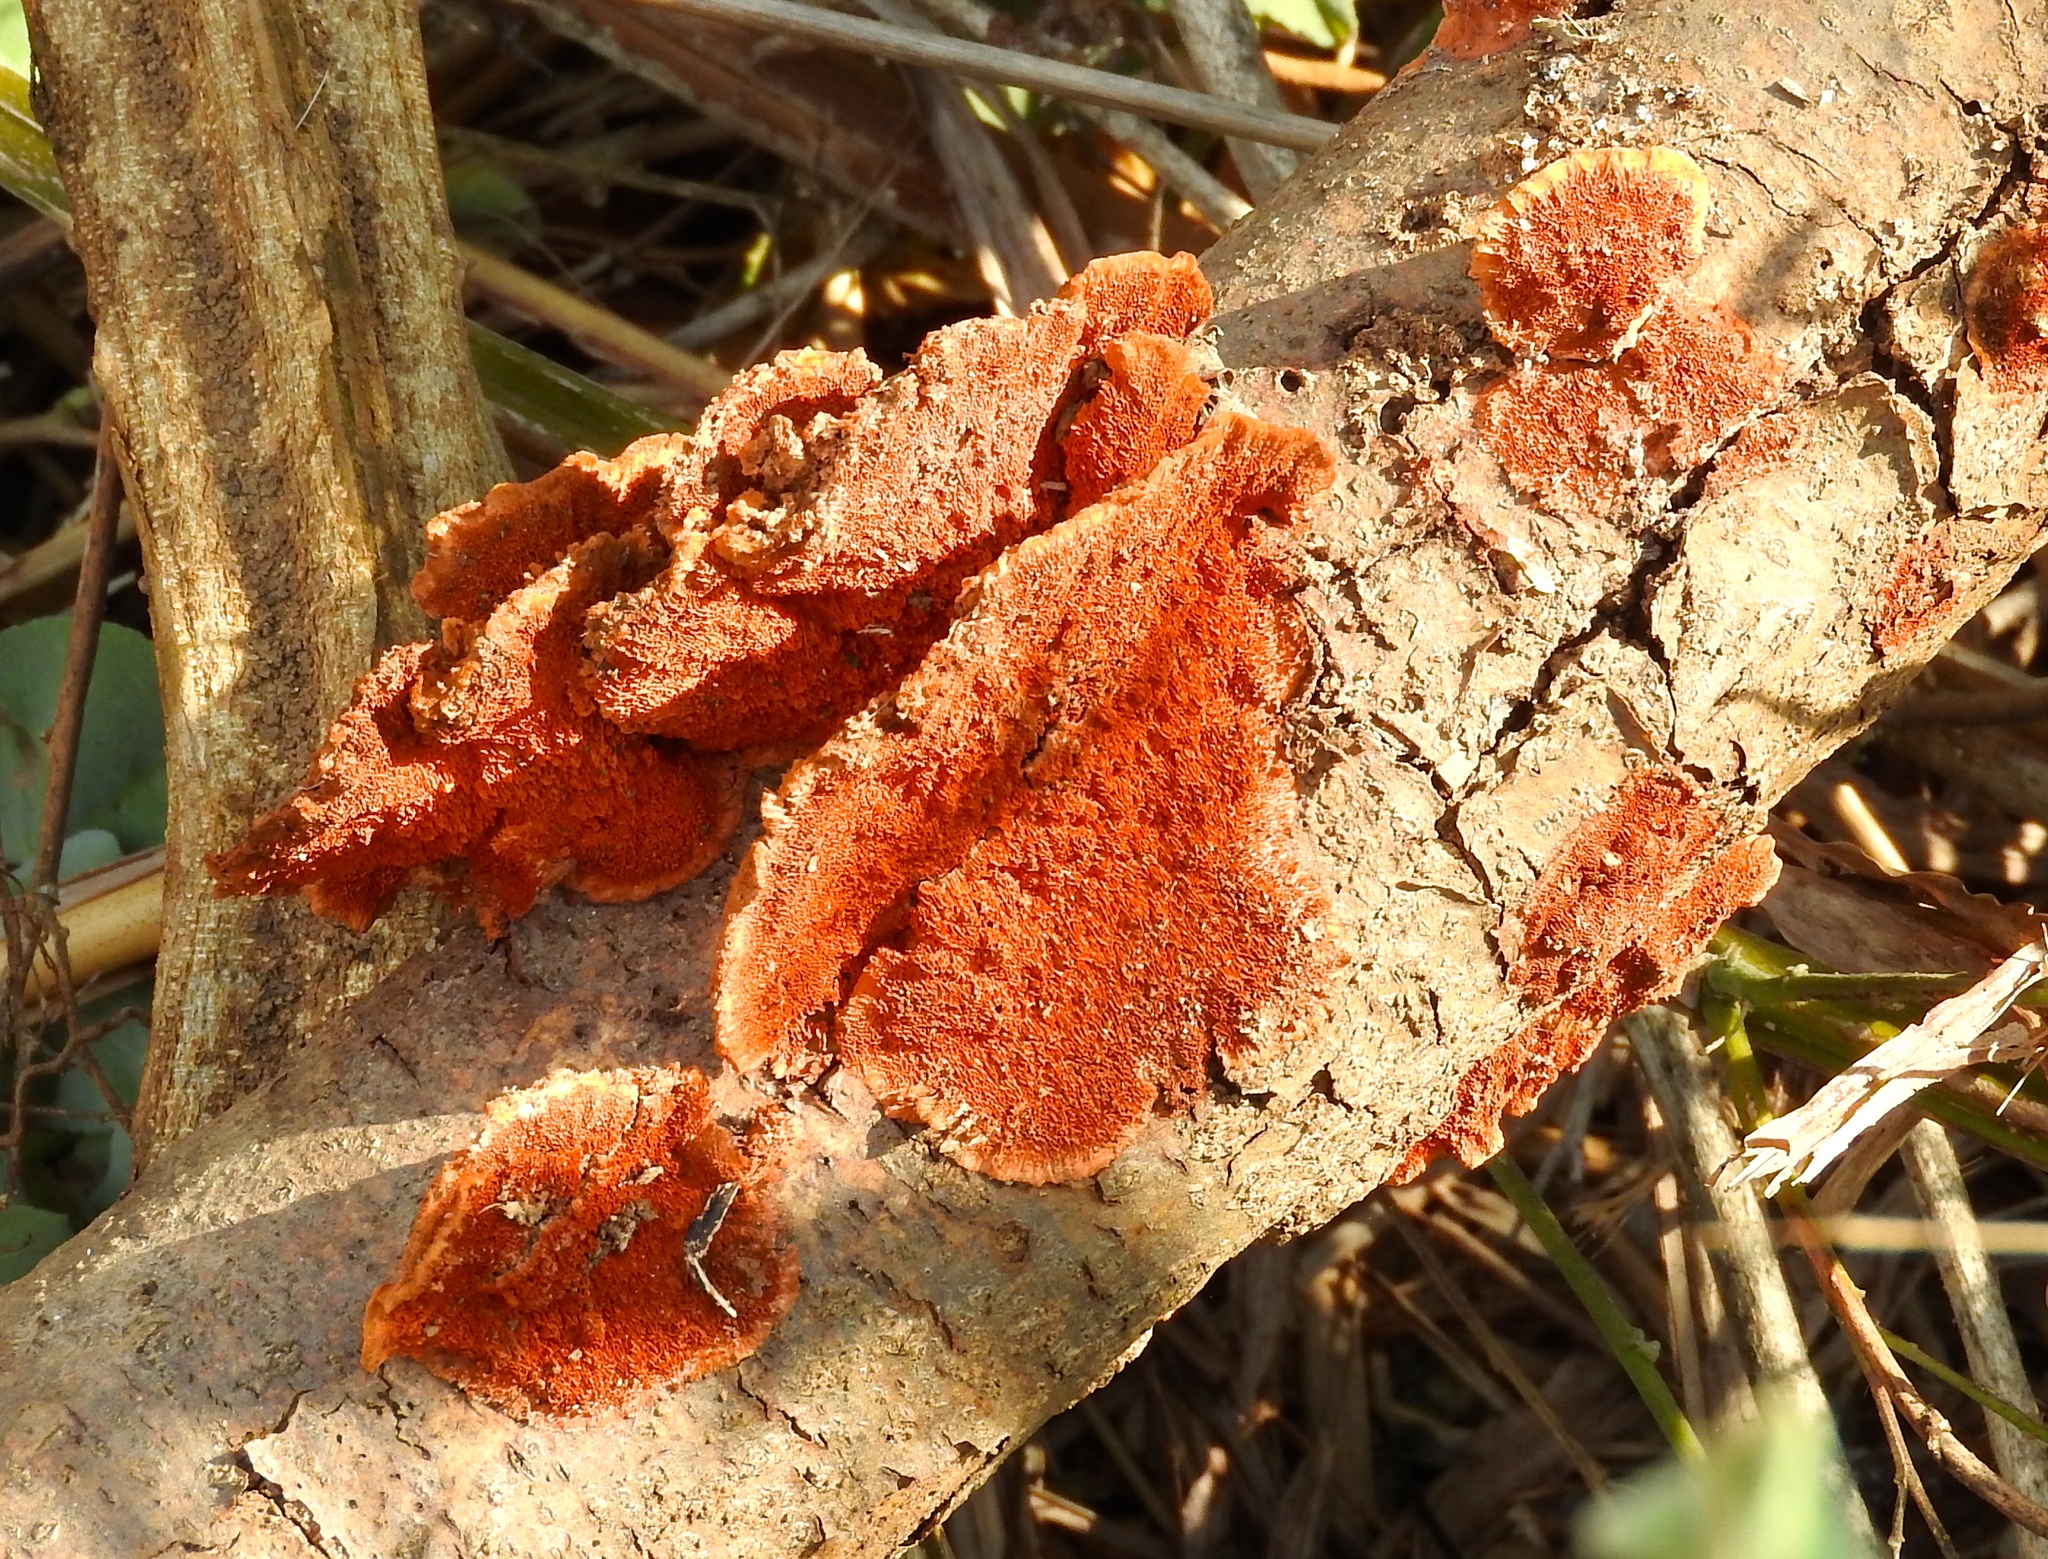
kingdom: Fungi
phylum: Basidiomycota
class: Agaricomycetes
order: Polyporales
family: Polyporaceae
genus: Trametes
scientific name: Trametes
